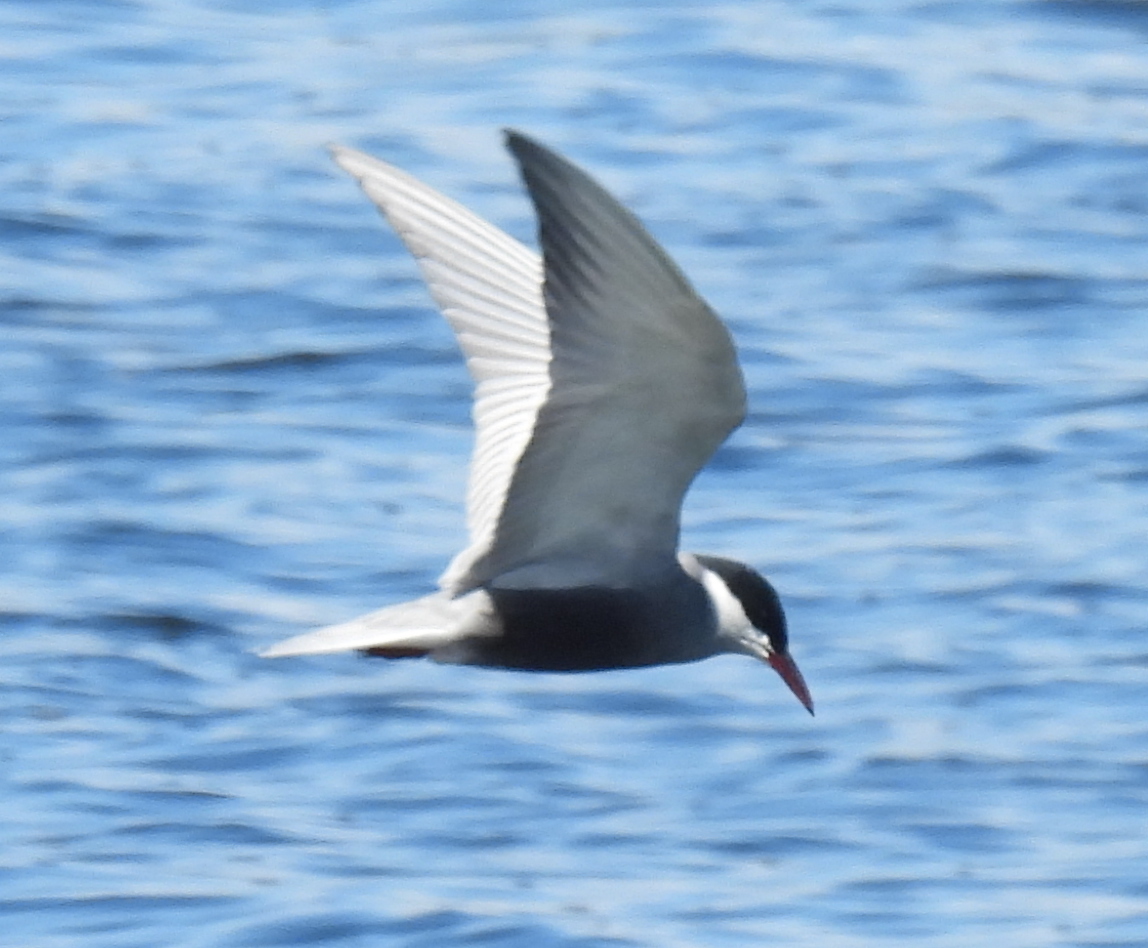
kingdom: Animalia
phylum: Chordata
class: Aves
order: Charadriiformes
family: Laridae
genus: Chlidonias
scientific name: Chlidonias hybrida
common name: Whiskered tern
